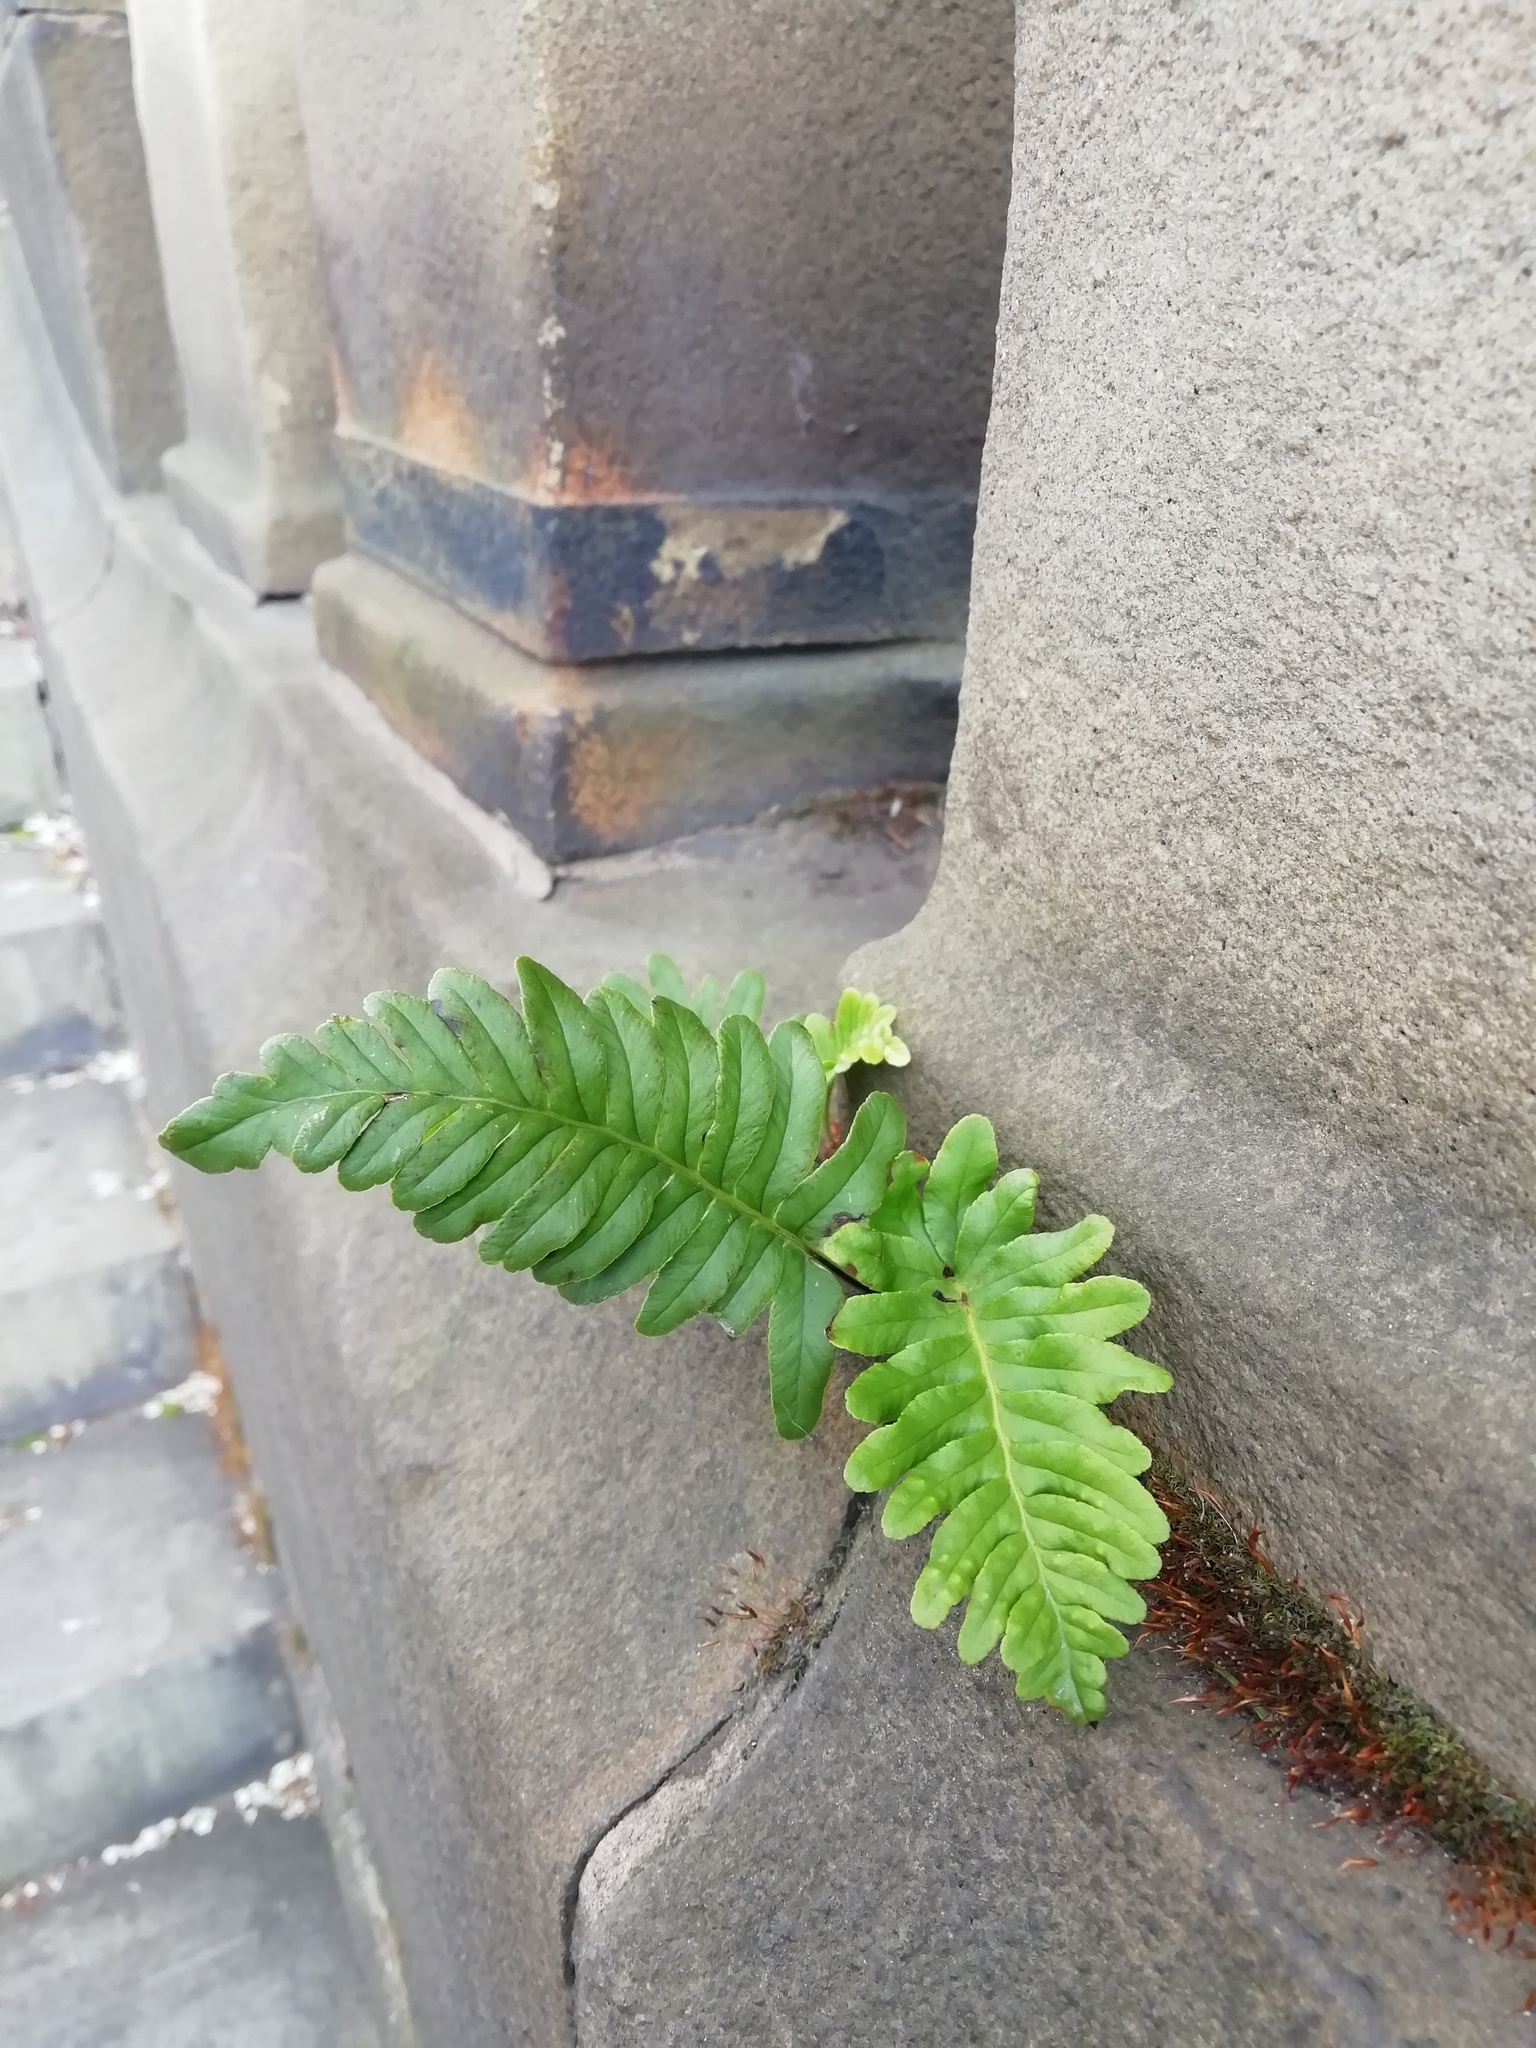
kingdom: Plantae
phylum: Tracheophyta
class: Polypodiopsida
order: Polypodiales
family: Polypodiaceae
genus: Polypodium
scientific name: Polypodium vulgare
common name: Common polypody
